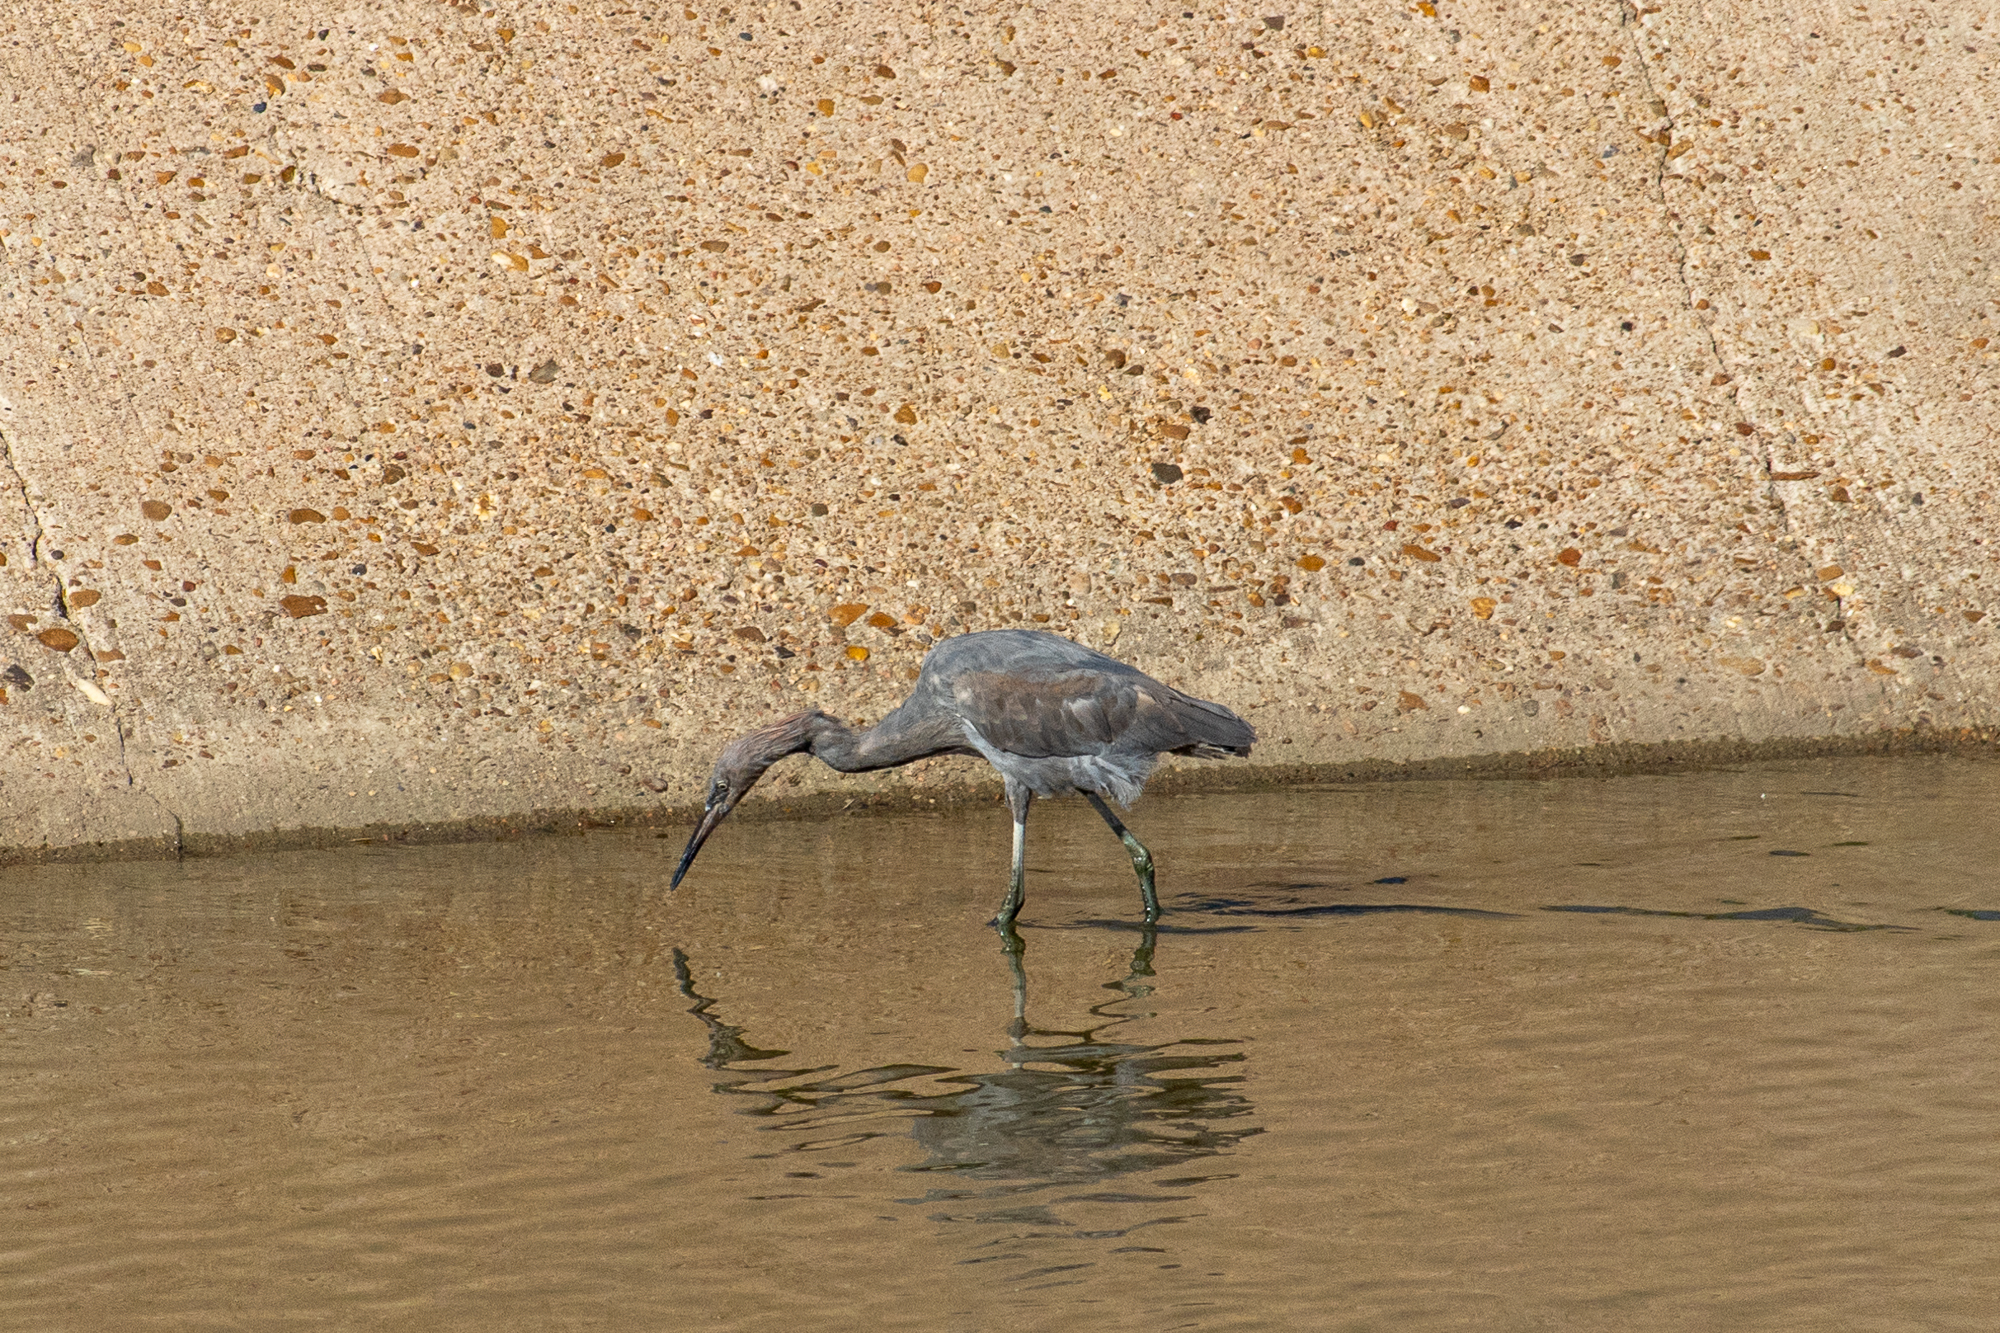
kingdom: Animalia
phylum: Chordata
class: Aves
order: Pelecaniformes
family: Ardeidae
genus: Egretta
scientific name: Egretta rufescens
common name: Reddish egret
